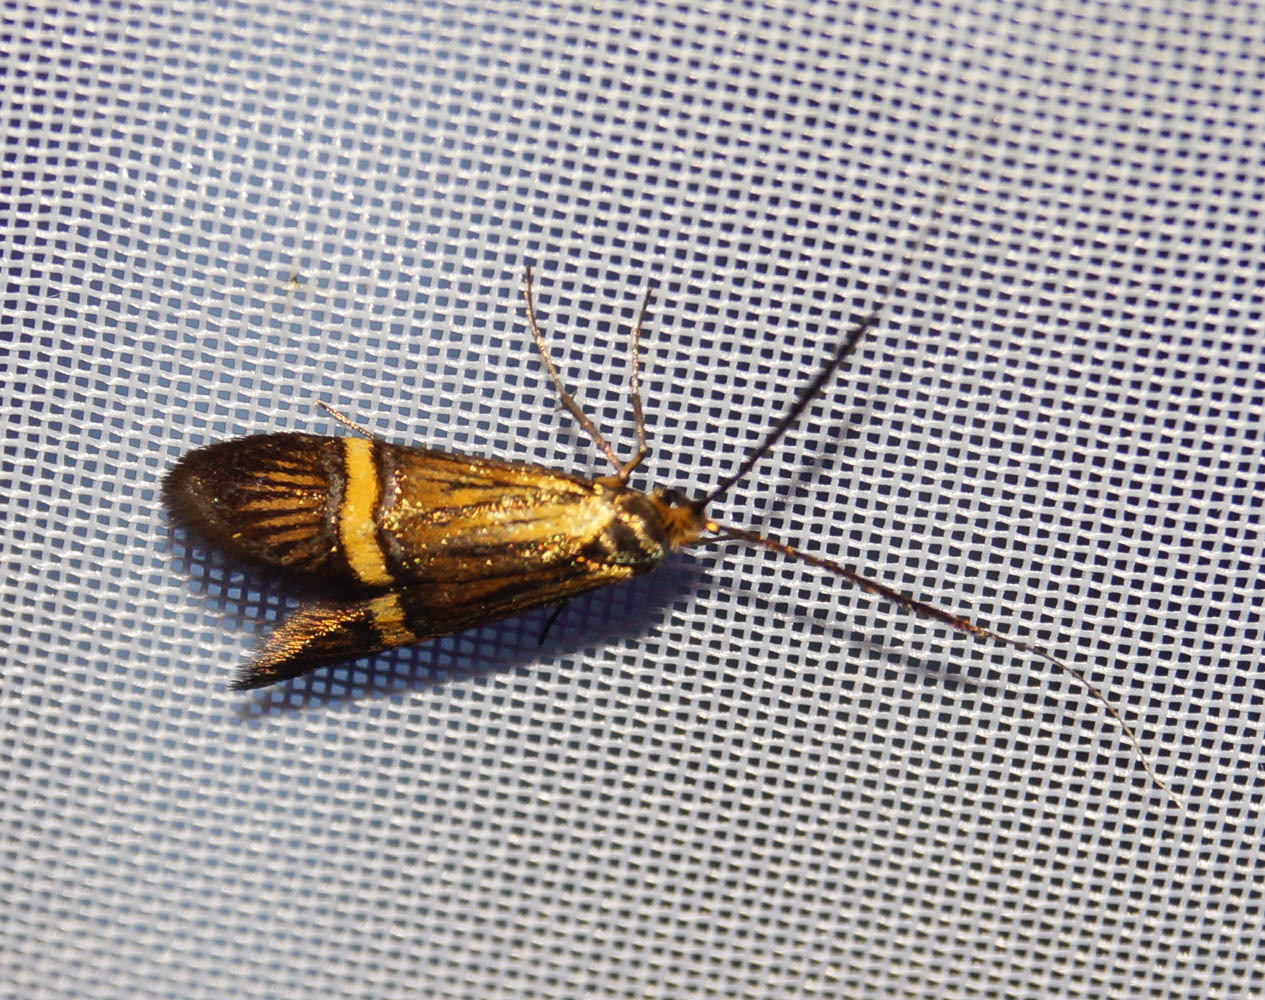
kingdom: Animalia
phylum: Arthropoda
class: Insecta
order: Lepidoptera
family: Adelidae
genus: Nemophora
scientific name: Nemophora
